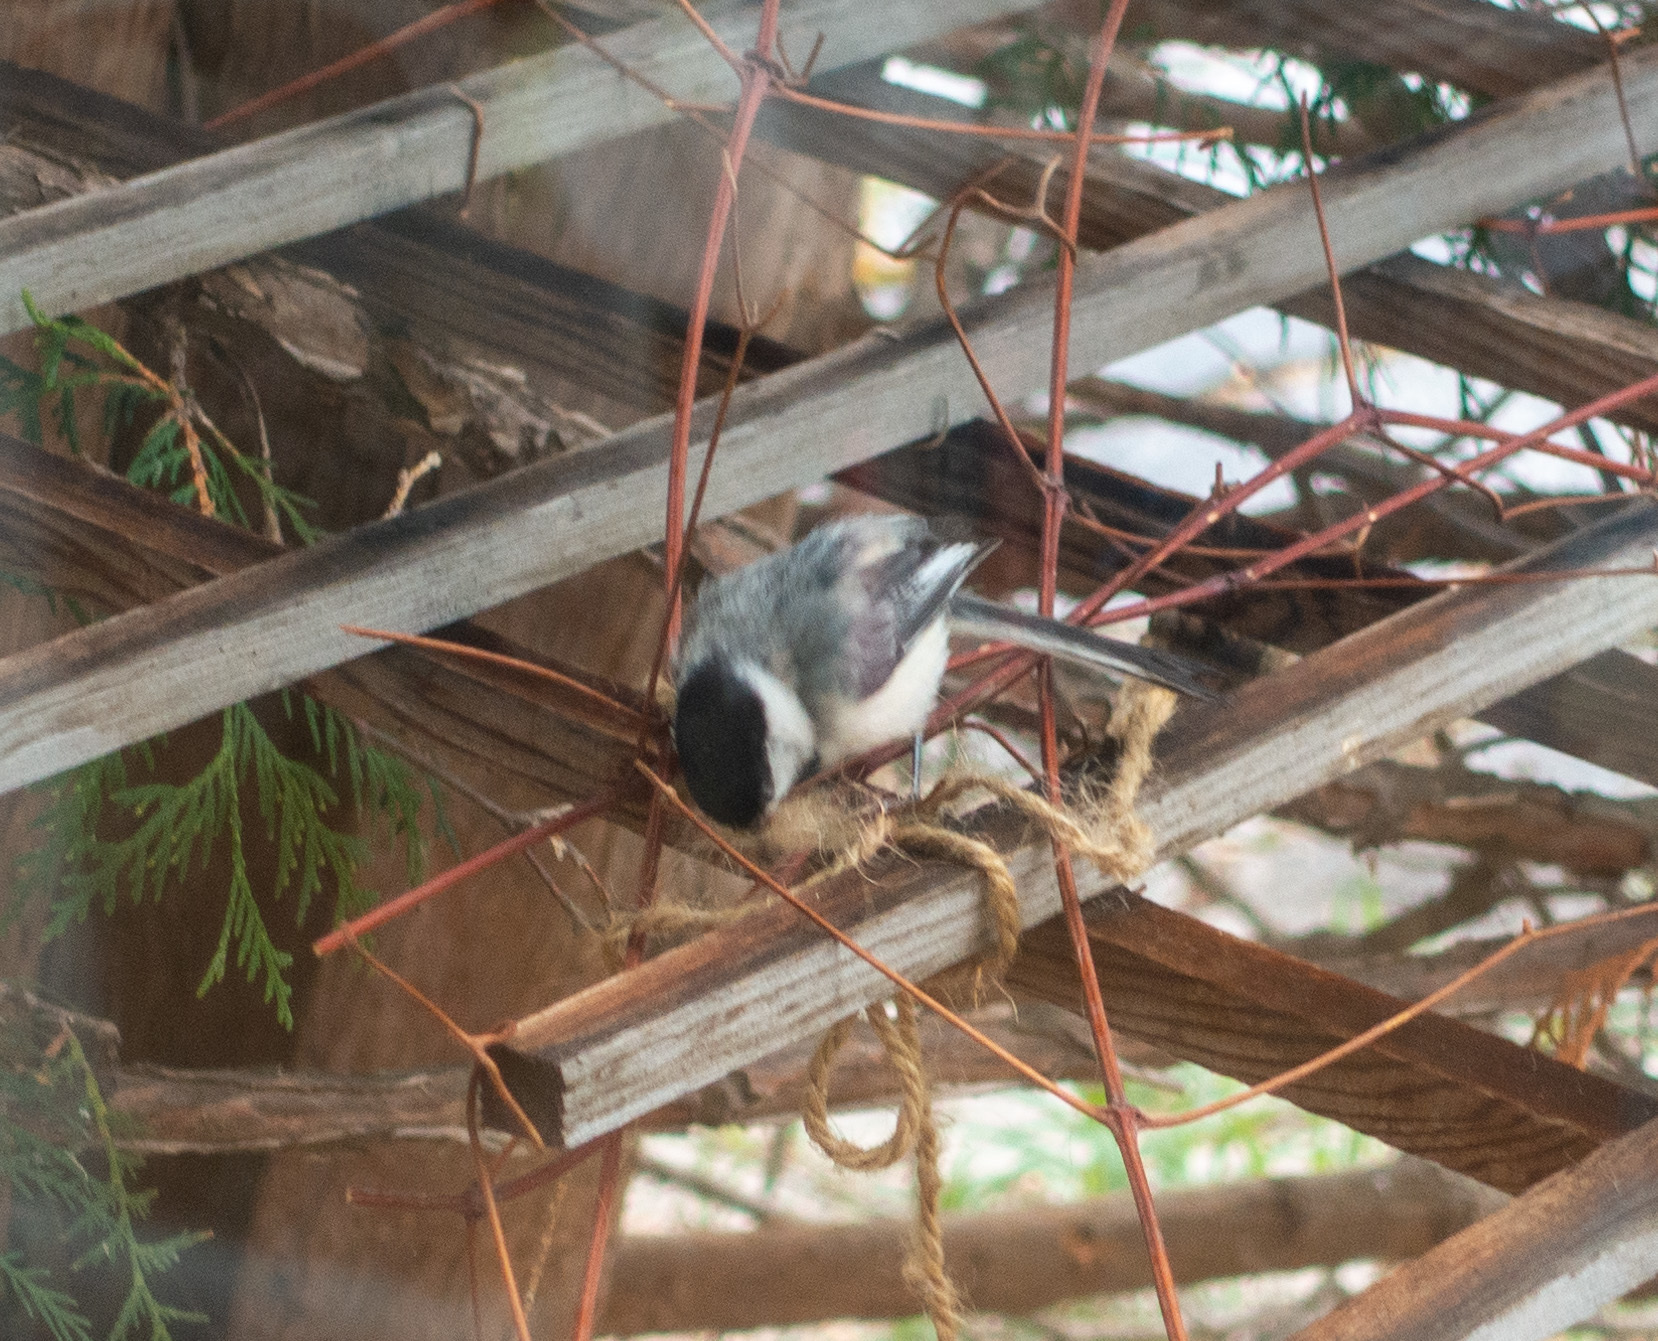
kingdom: Animalia
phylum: Chordata
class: Aves
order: Passeriformes
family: Paridae
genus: Poecile
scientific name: Poecile atricapillus
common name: Black-capped chickadee
